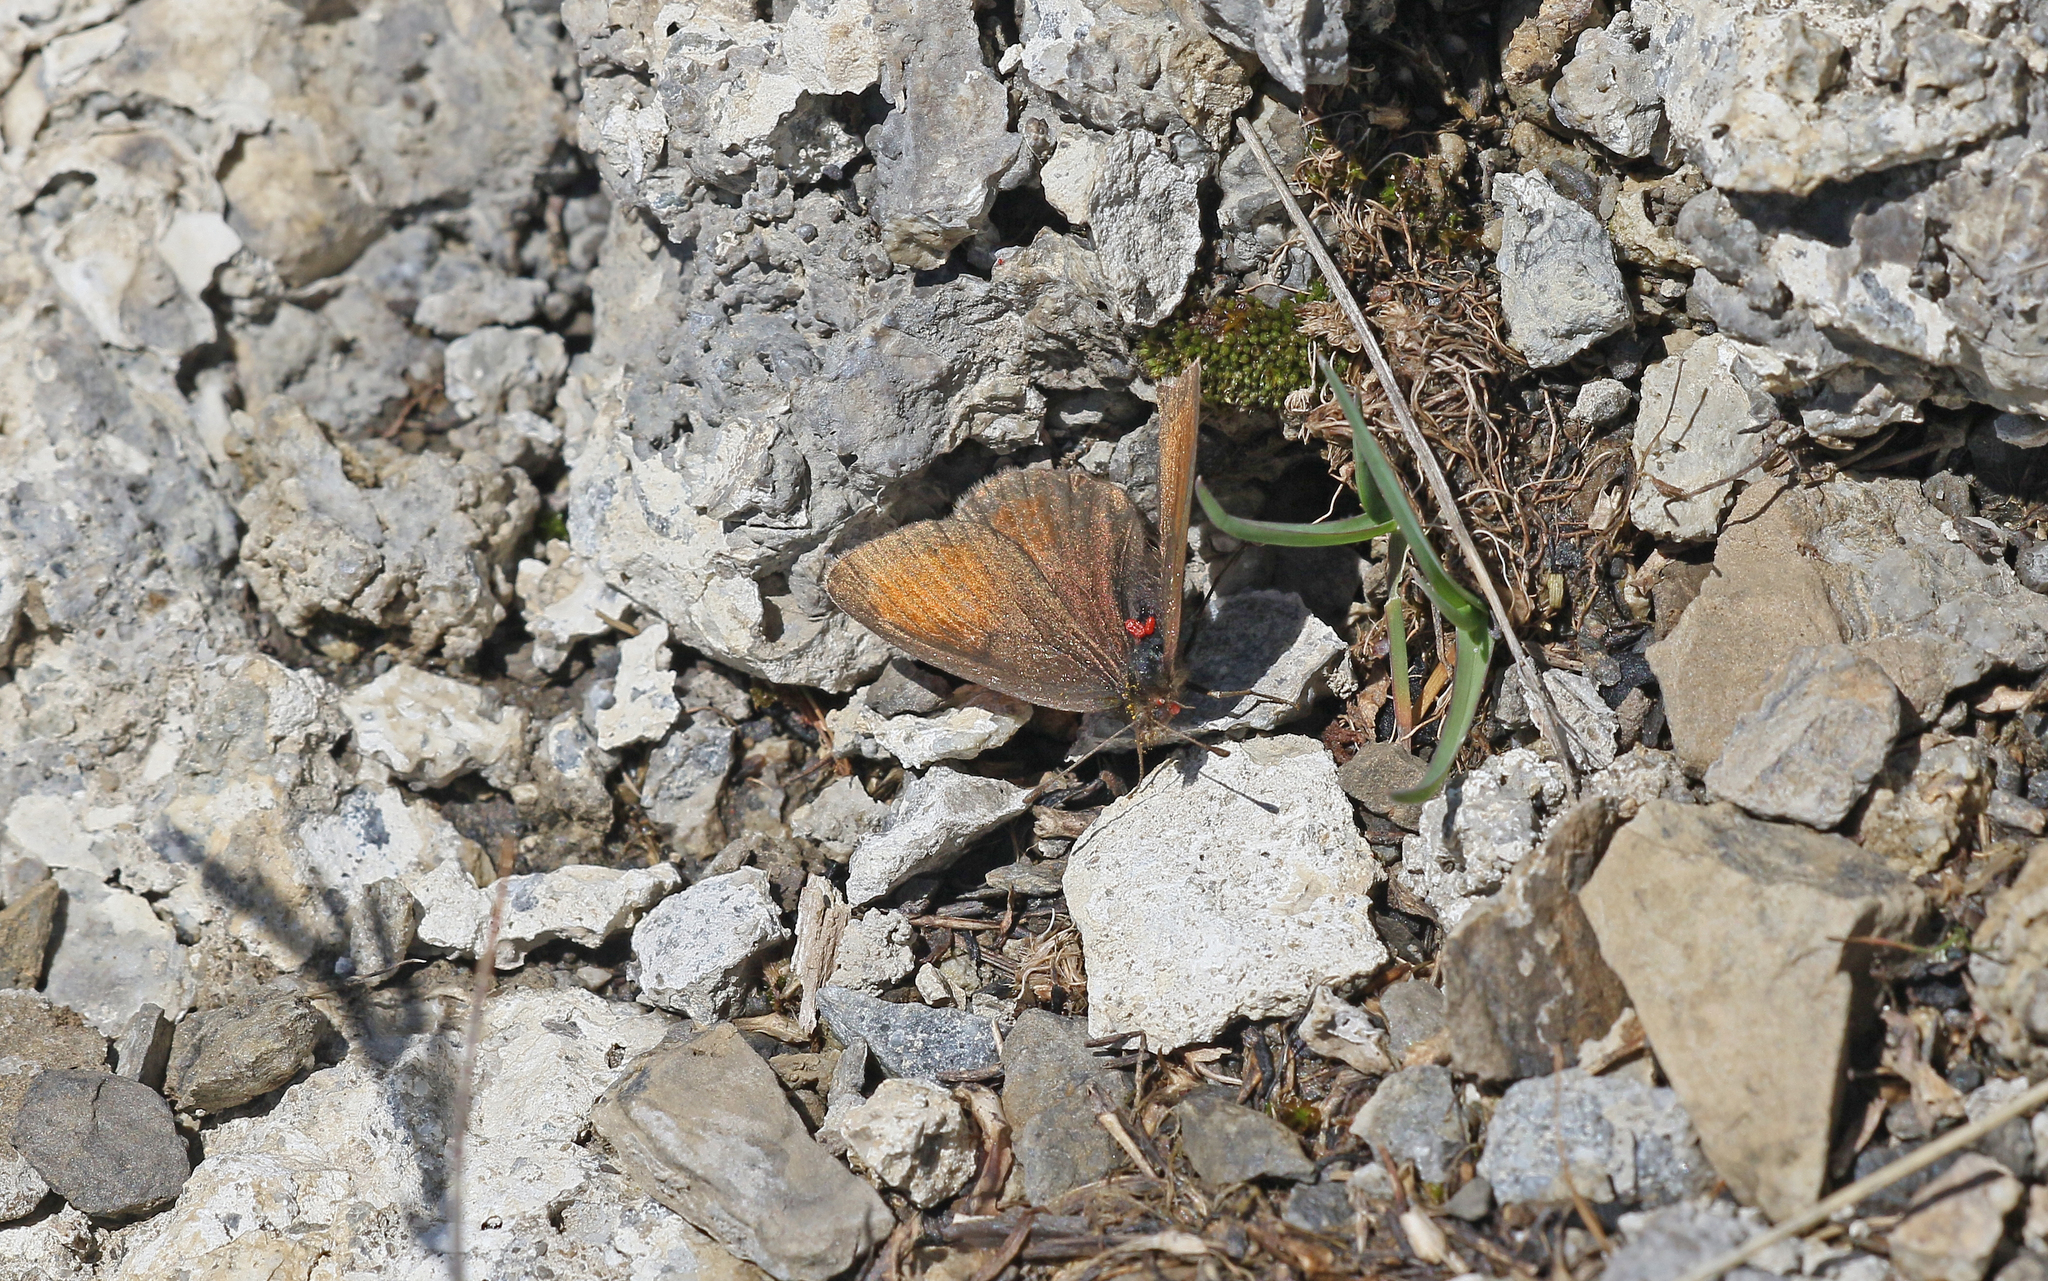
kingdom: Animalia
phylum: Arthropoda
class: Insecta
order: Lepidoptera
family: Nymphalidae
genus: Erebia
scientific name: Erebia gorge
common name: Silky ringlet
